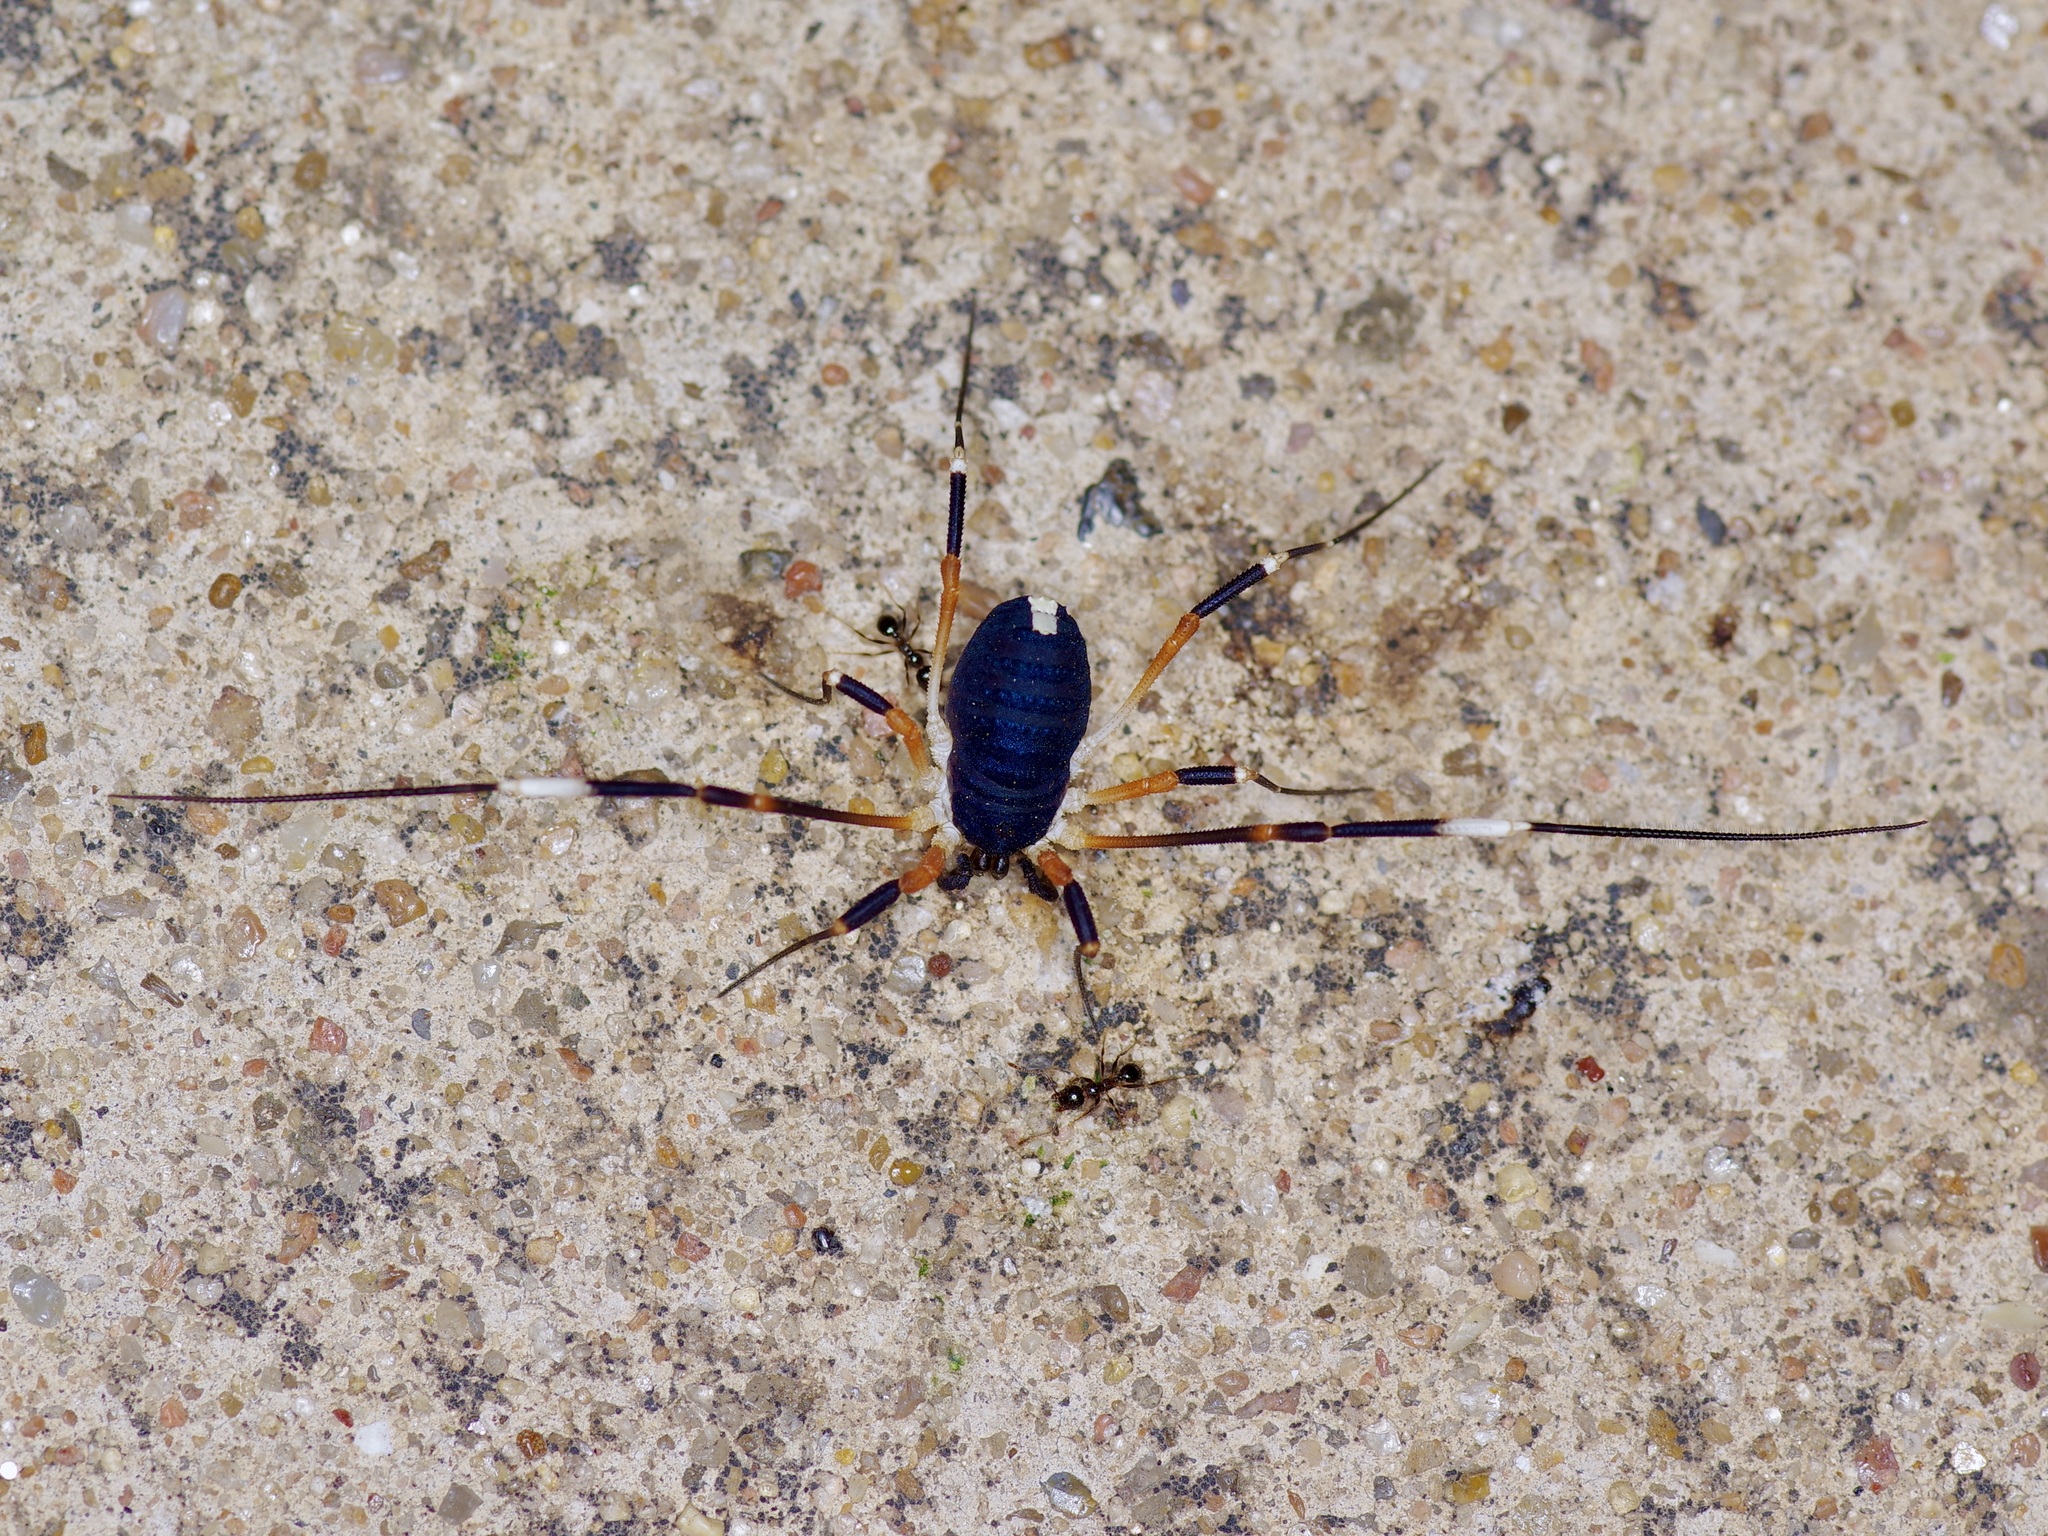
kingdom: Animalia
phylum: Arthropoda
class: Arachnida
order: Opiliones
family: Globipedidae
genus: Dalquestia
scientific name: Dalquestia formosa
